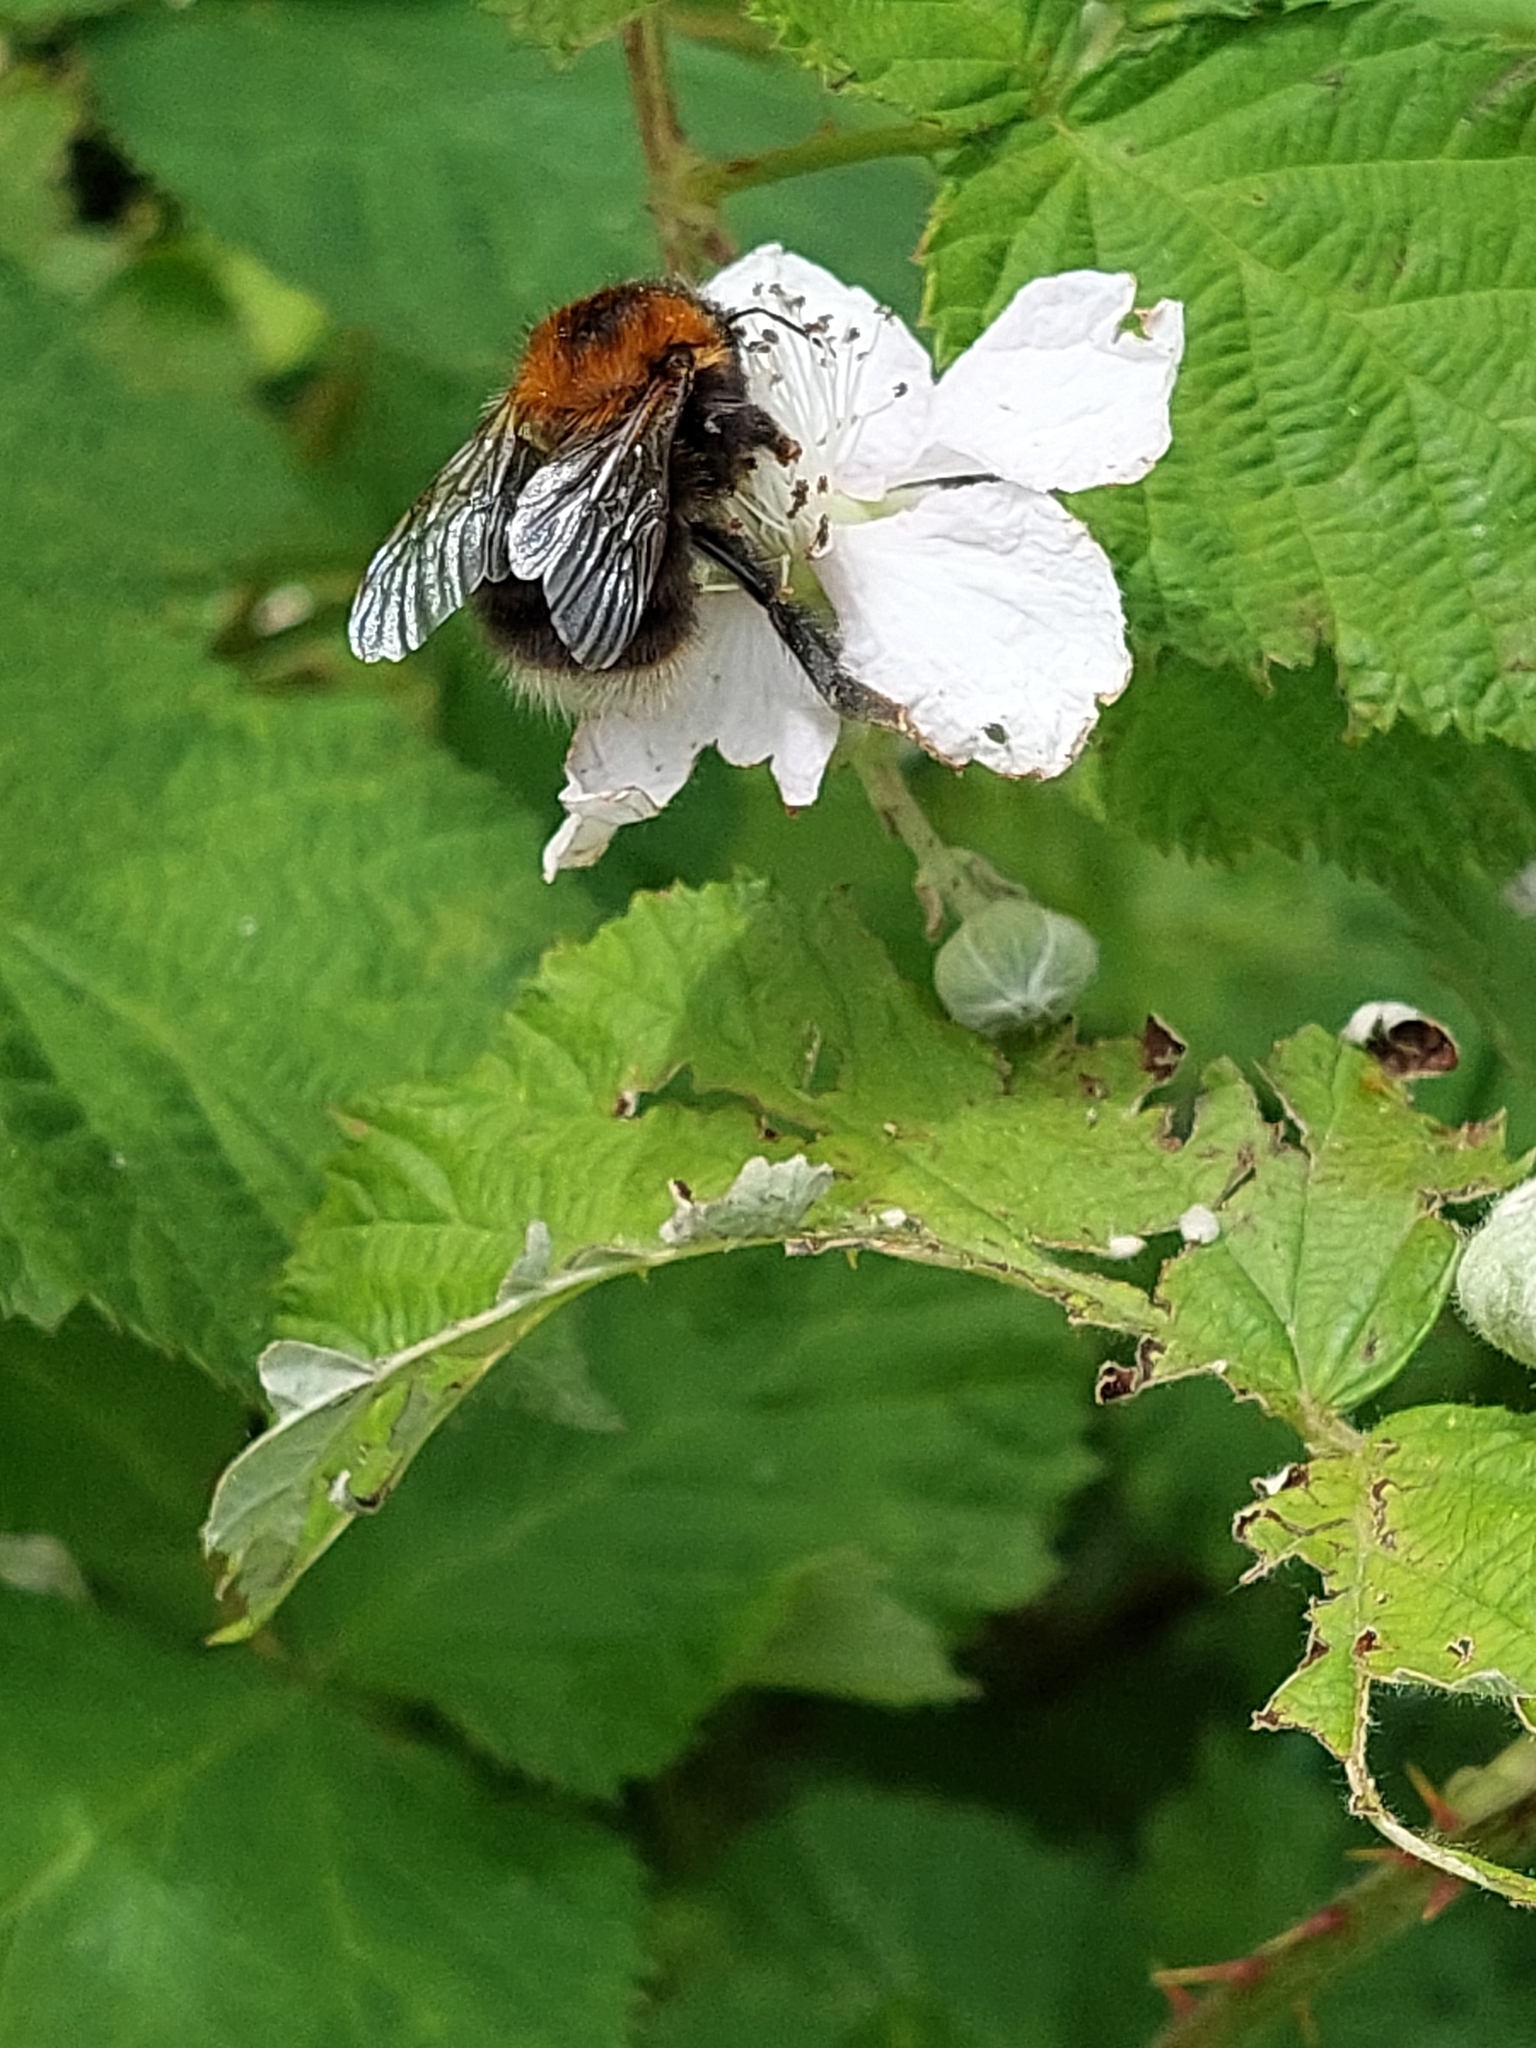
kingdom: Animalia
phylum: Arthropoda
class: Insecta
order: Hymenoptera
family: Apidae
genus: Bombus
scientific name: Bombus hypnorum
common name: New garden bumblebee
